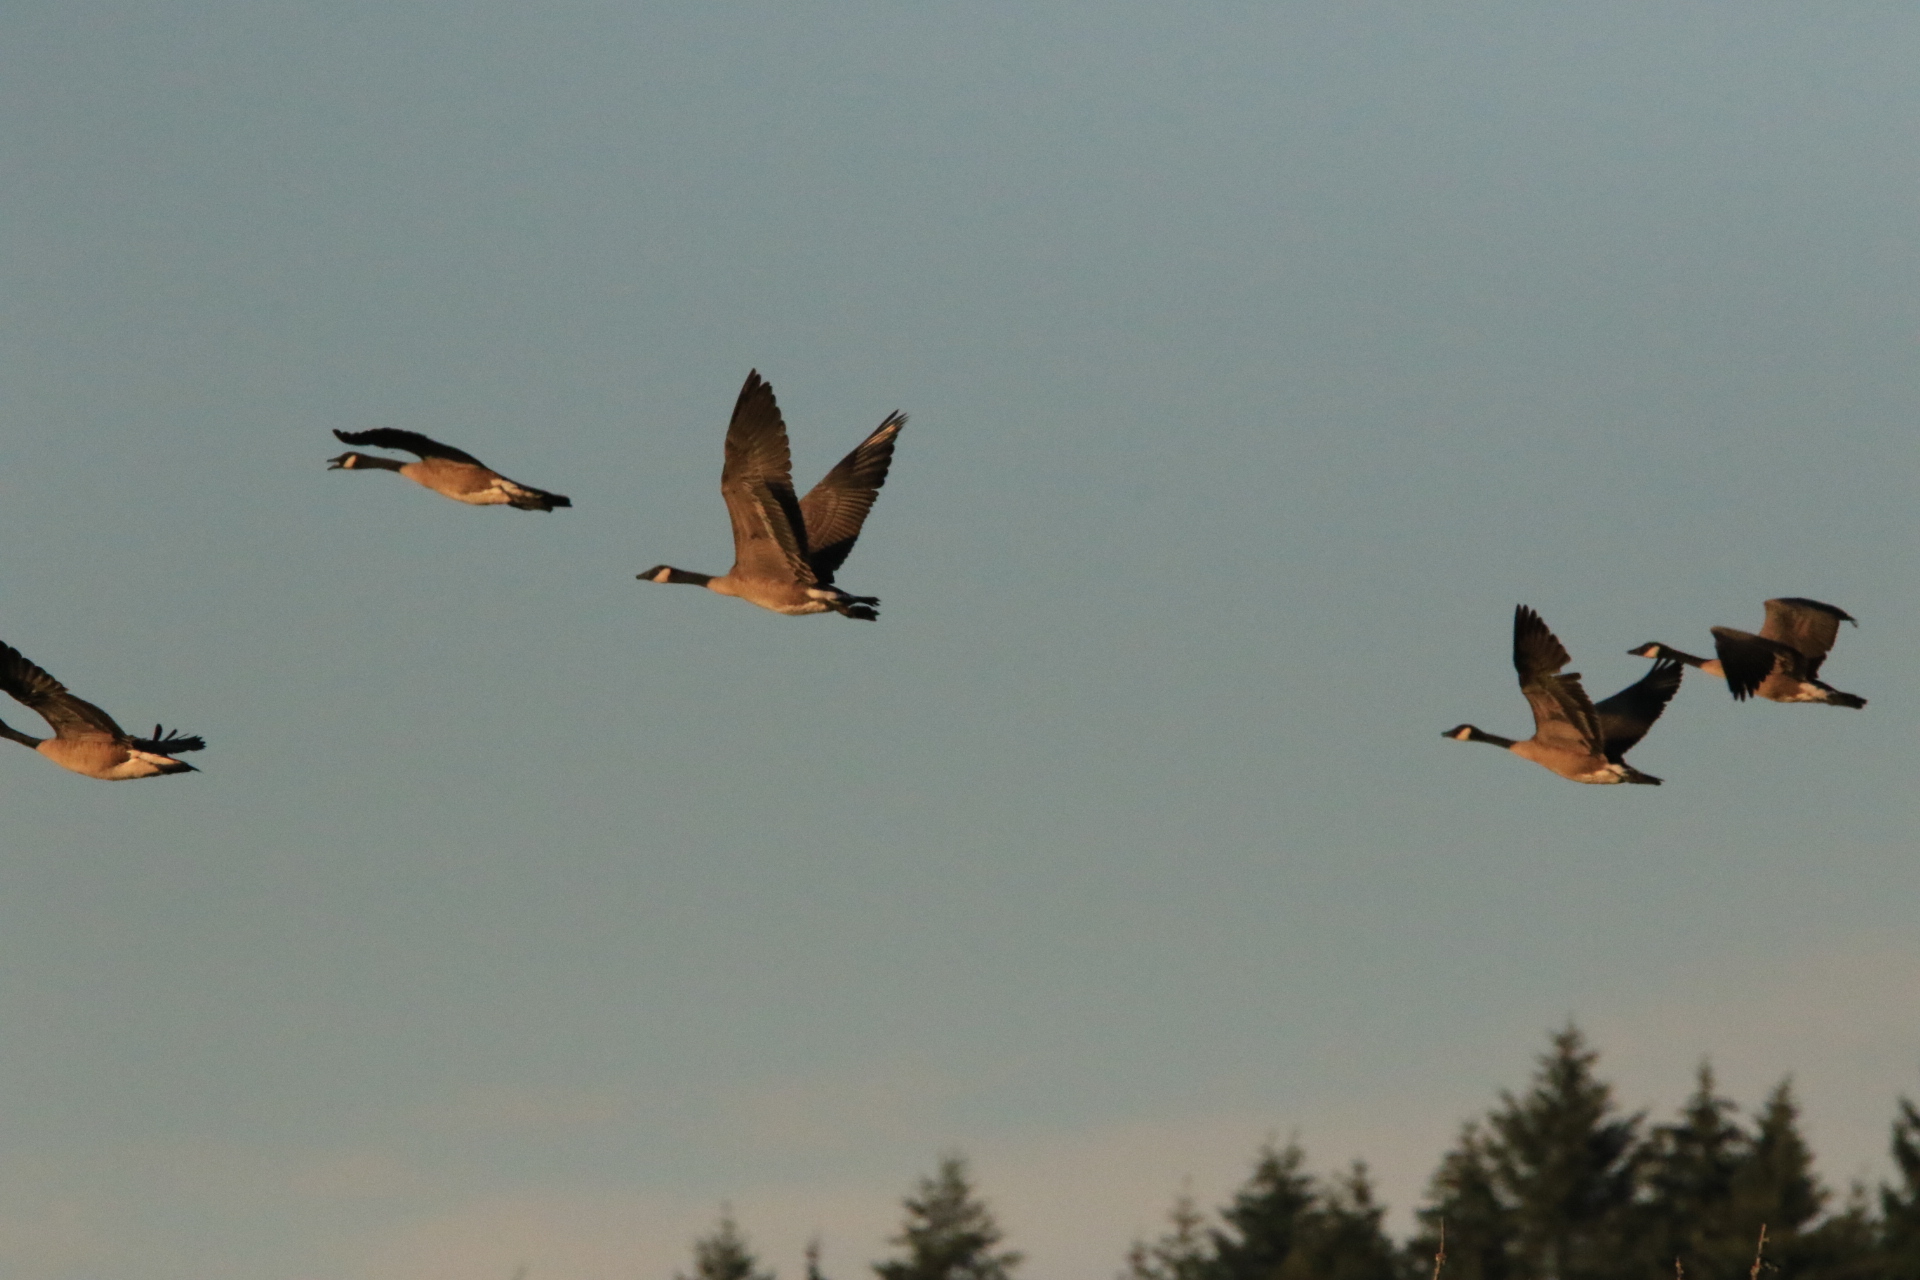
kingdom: Animalia
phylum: Chordata
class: Aves
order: Anseriformes
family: Anatidae
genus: Branta
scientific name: Branta canadensis
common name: Canada goose
